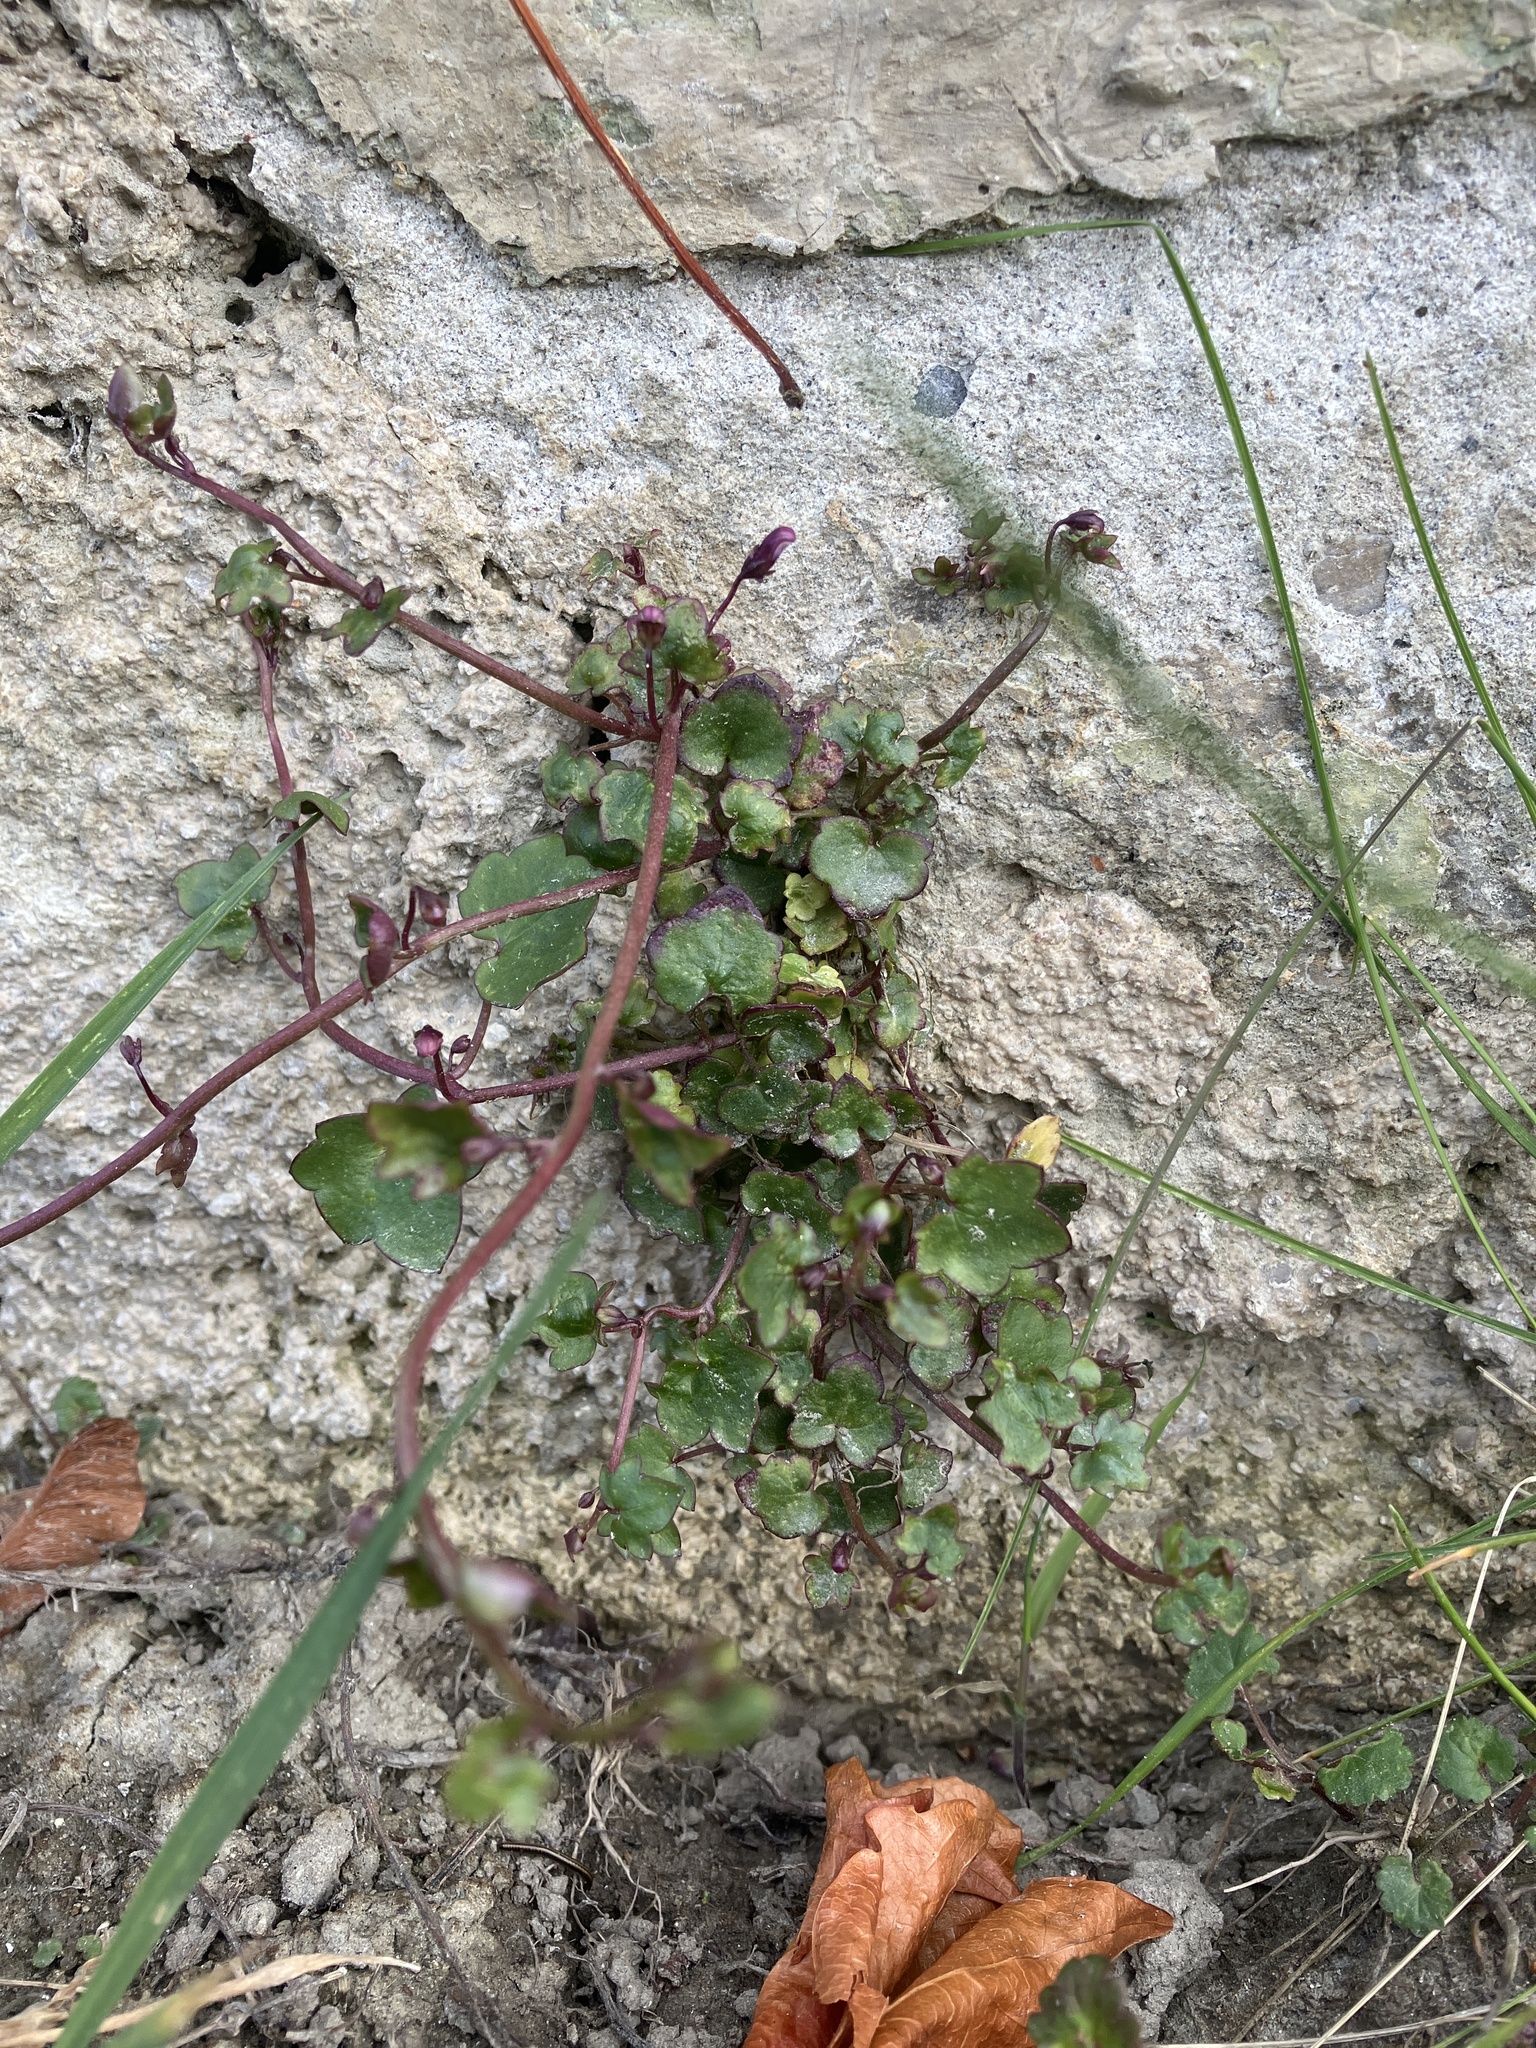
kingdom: Plantae
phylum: Tracheophyta
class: Magnoliopsida
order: Lamiales
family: Plantaginaceae
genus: Cymbalaria
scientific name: Cymbalaria muralis
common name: Ivy-leaved toadflax
